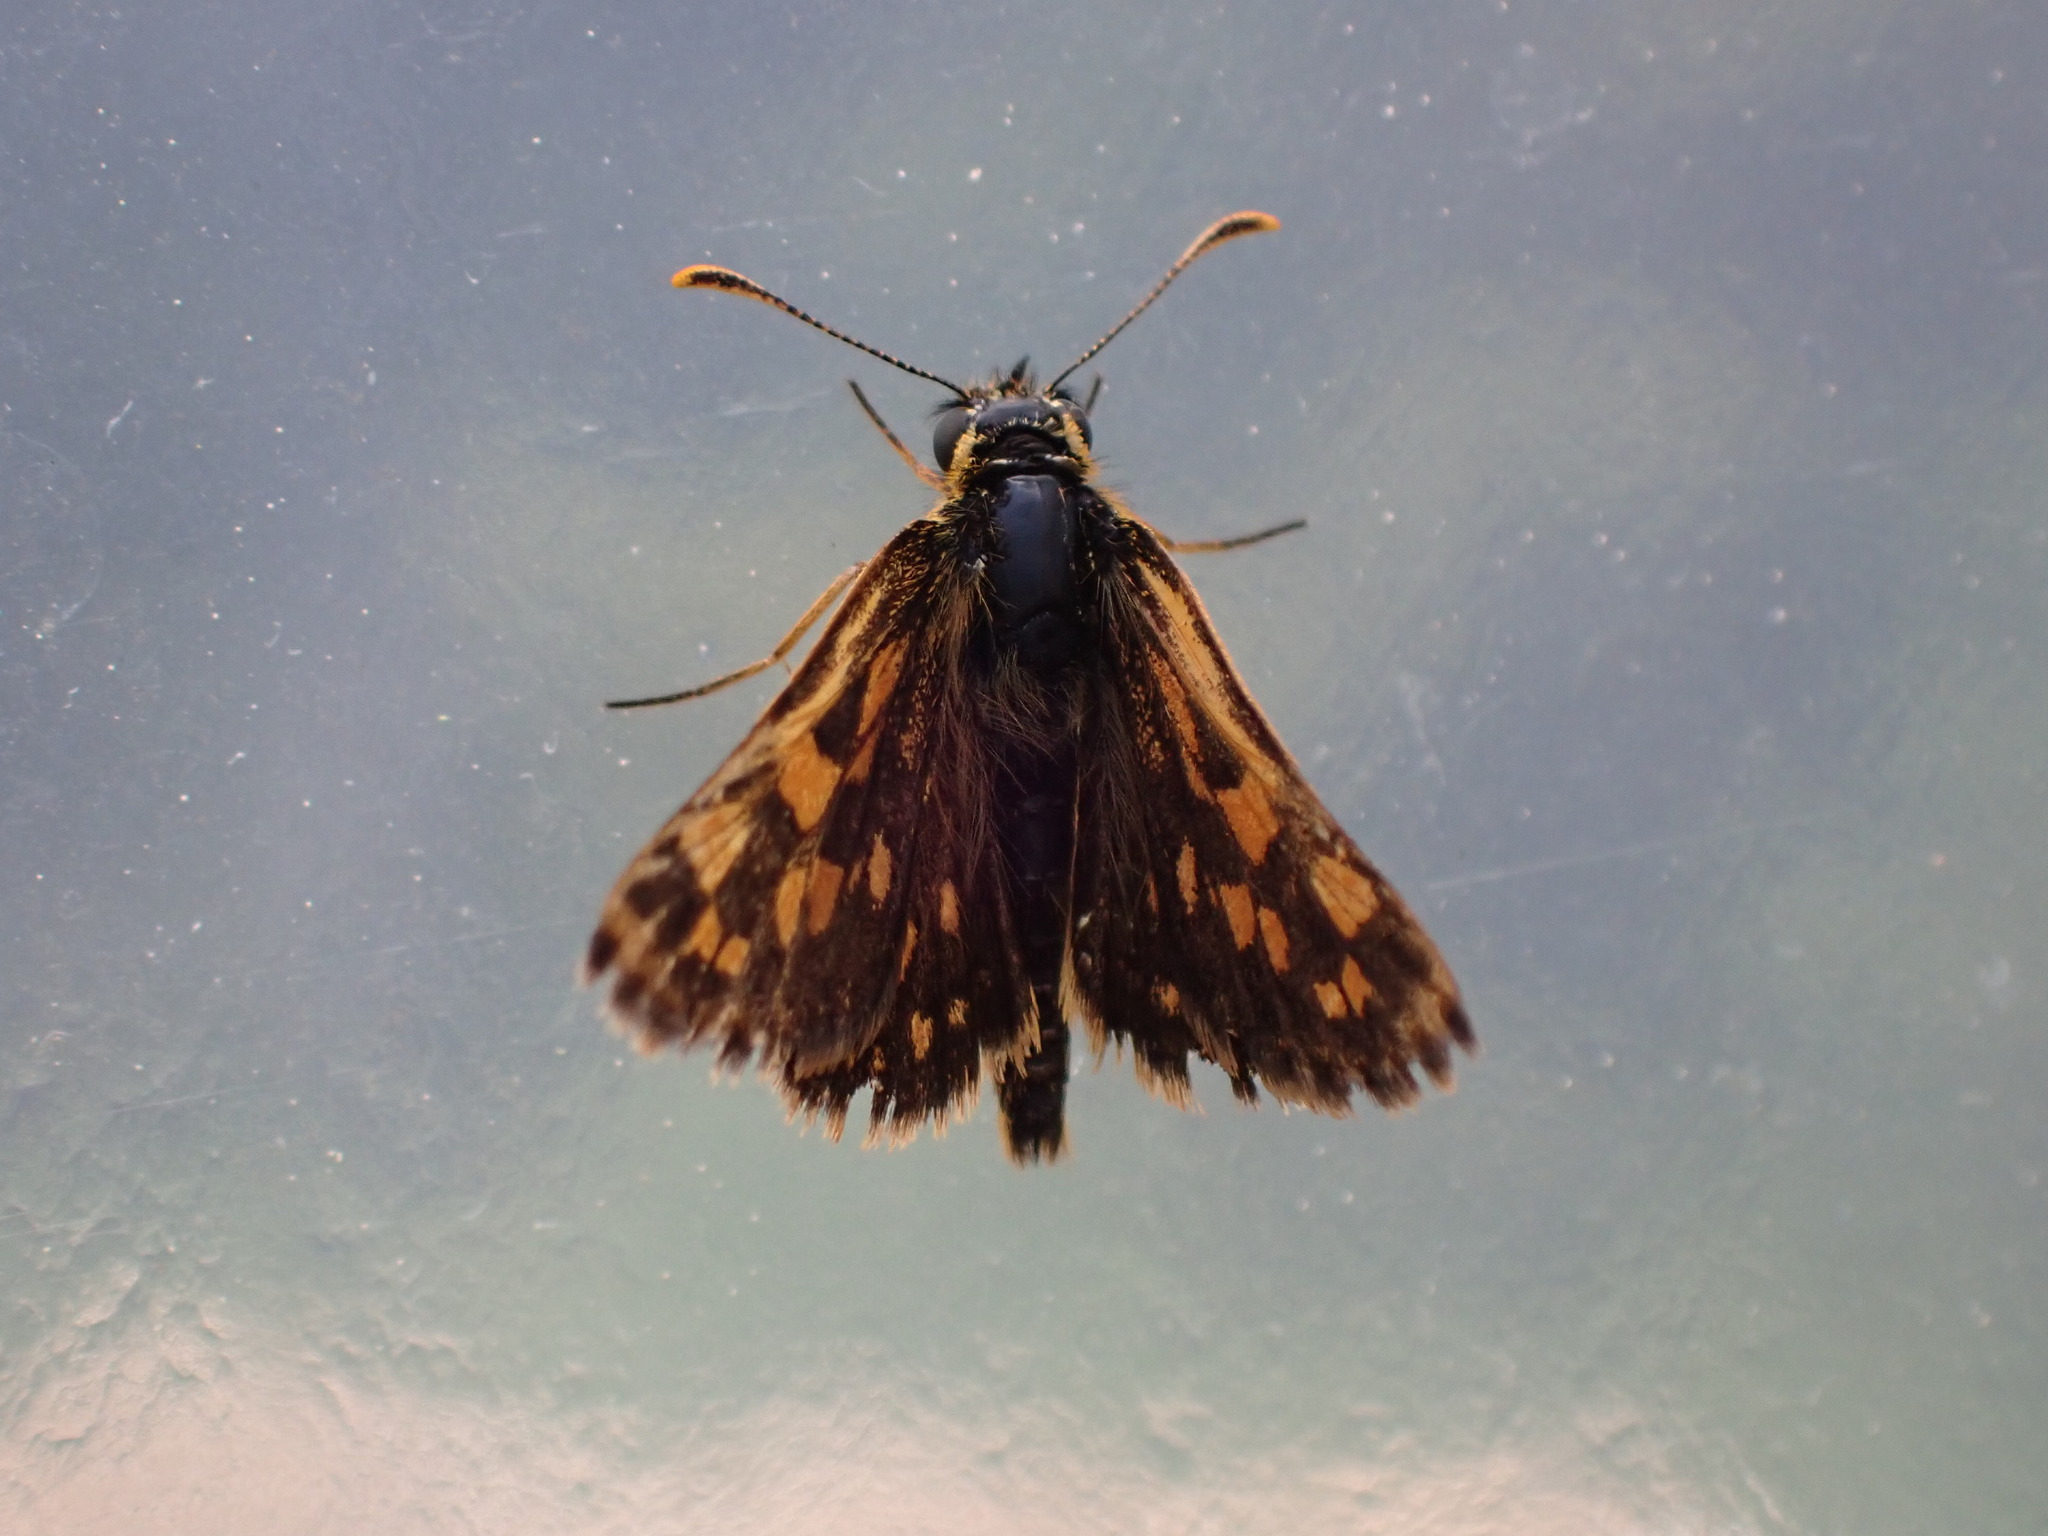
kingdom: Animalia
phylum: Arthropoda
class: Insecta
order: Lepidoptera
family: Hesperiidae
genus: Carterocephalus
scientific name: Carterocephalus mandan
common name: Arctic skipperling
